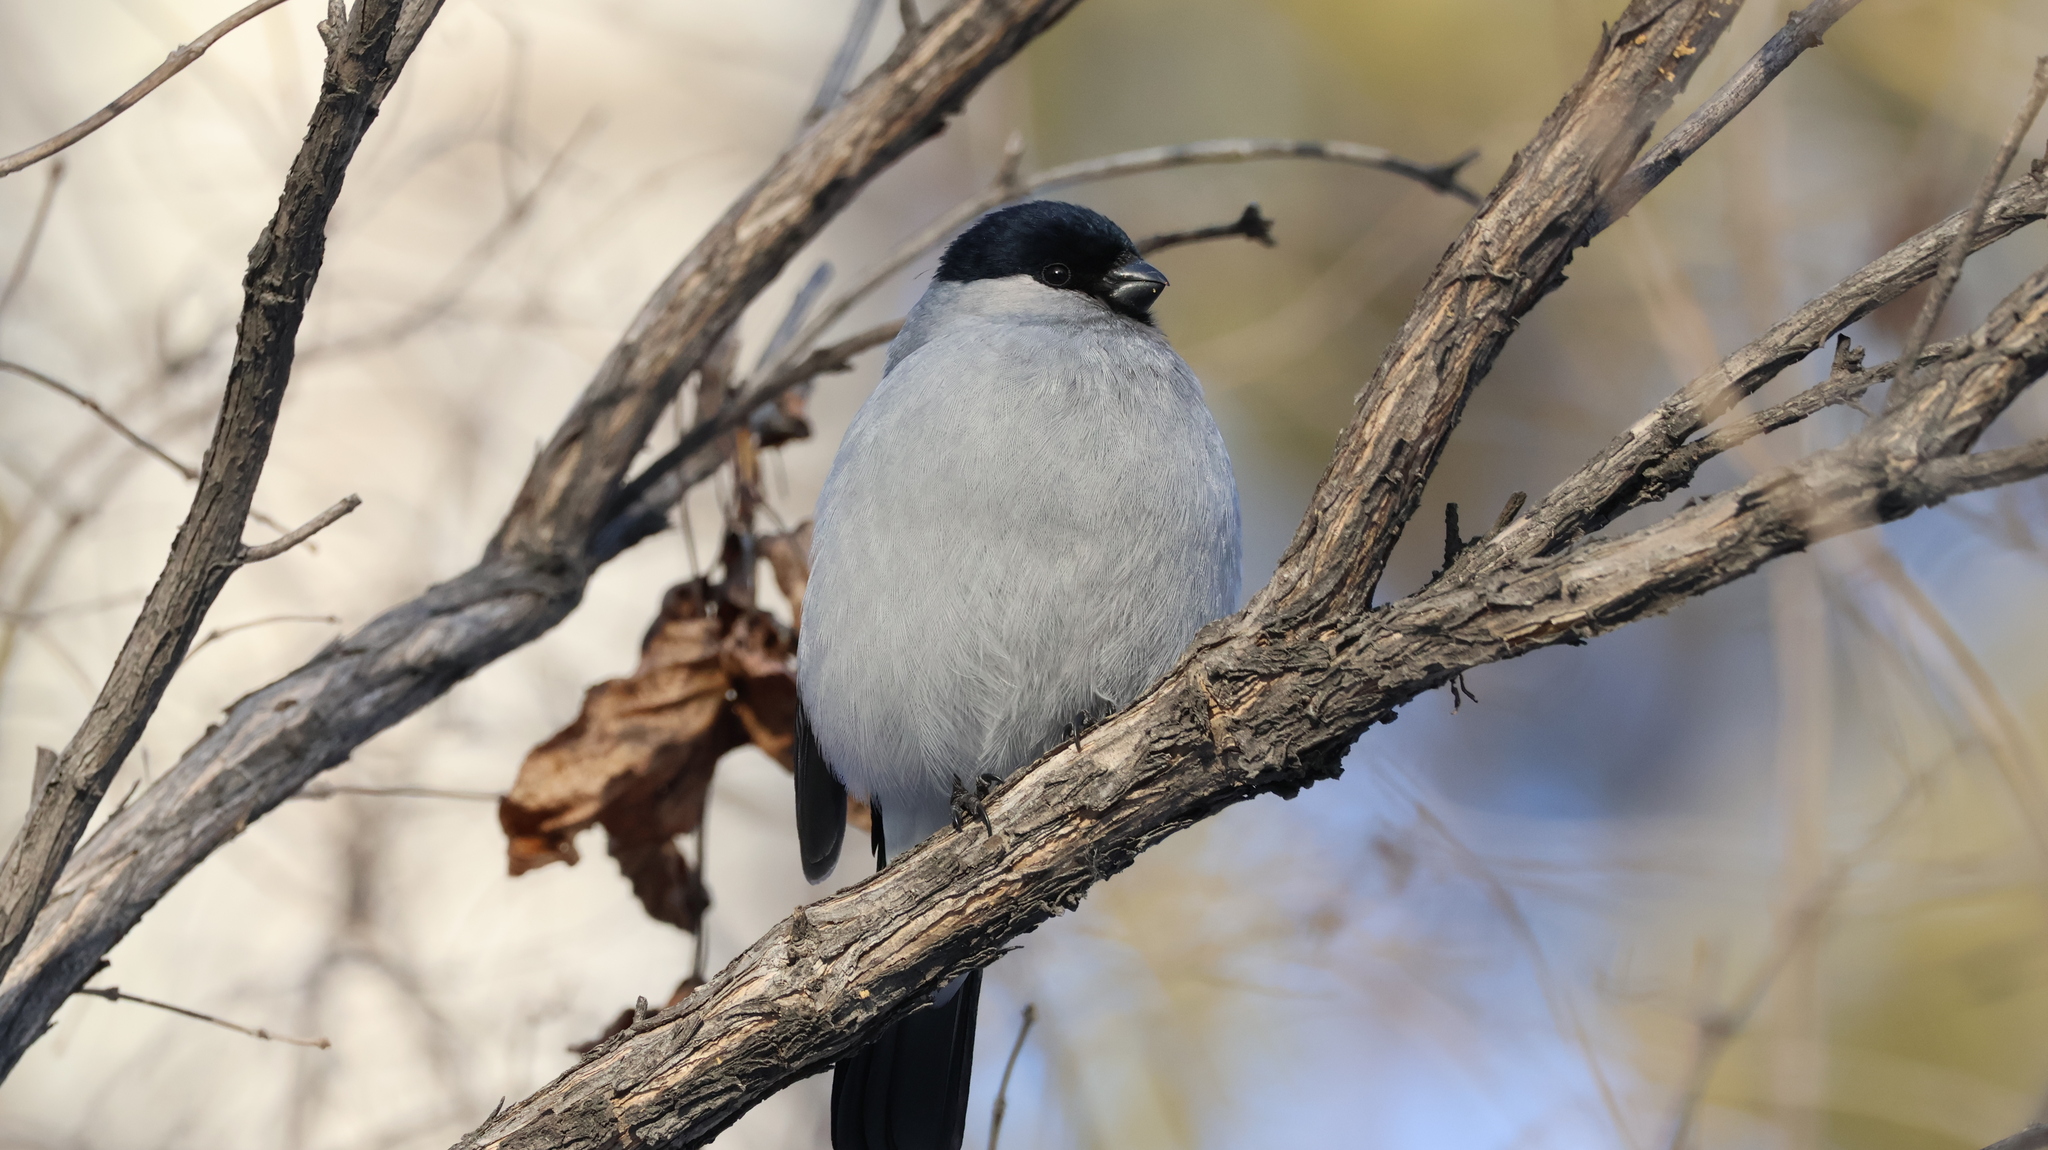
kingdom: Animalia
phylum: Chordata
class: Aves
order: Passeriformes
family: Fringillidae
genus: Pyrrhula
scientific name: Pyrrhula pyrrhula
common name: Eurasian bullfinch
